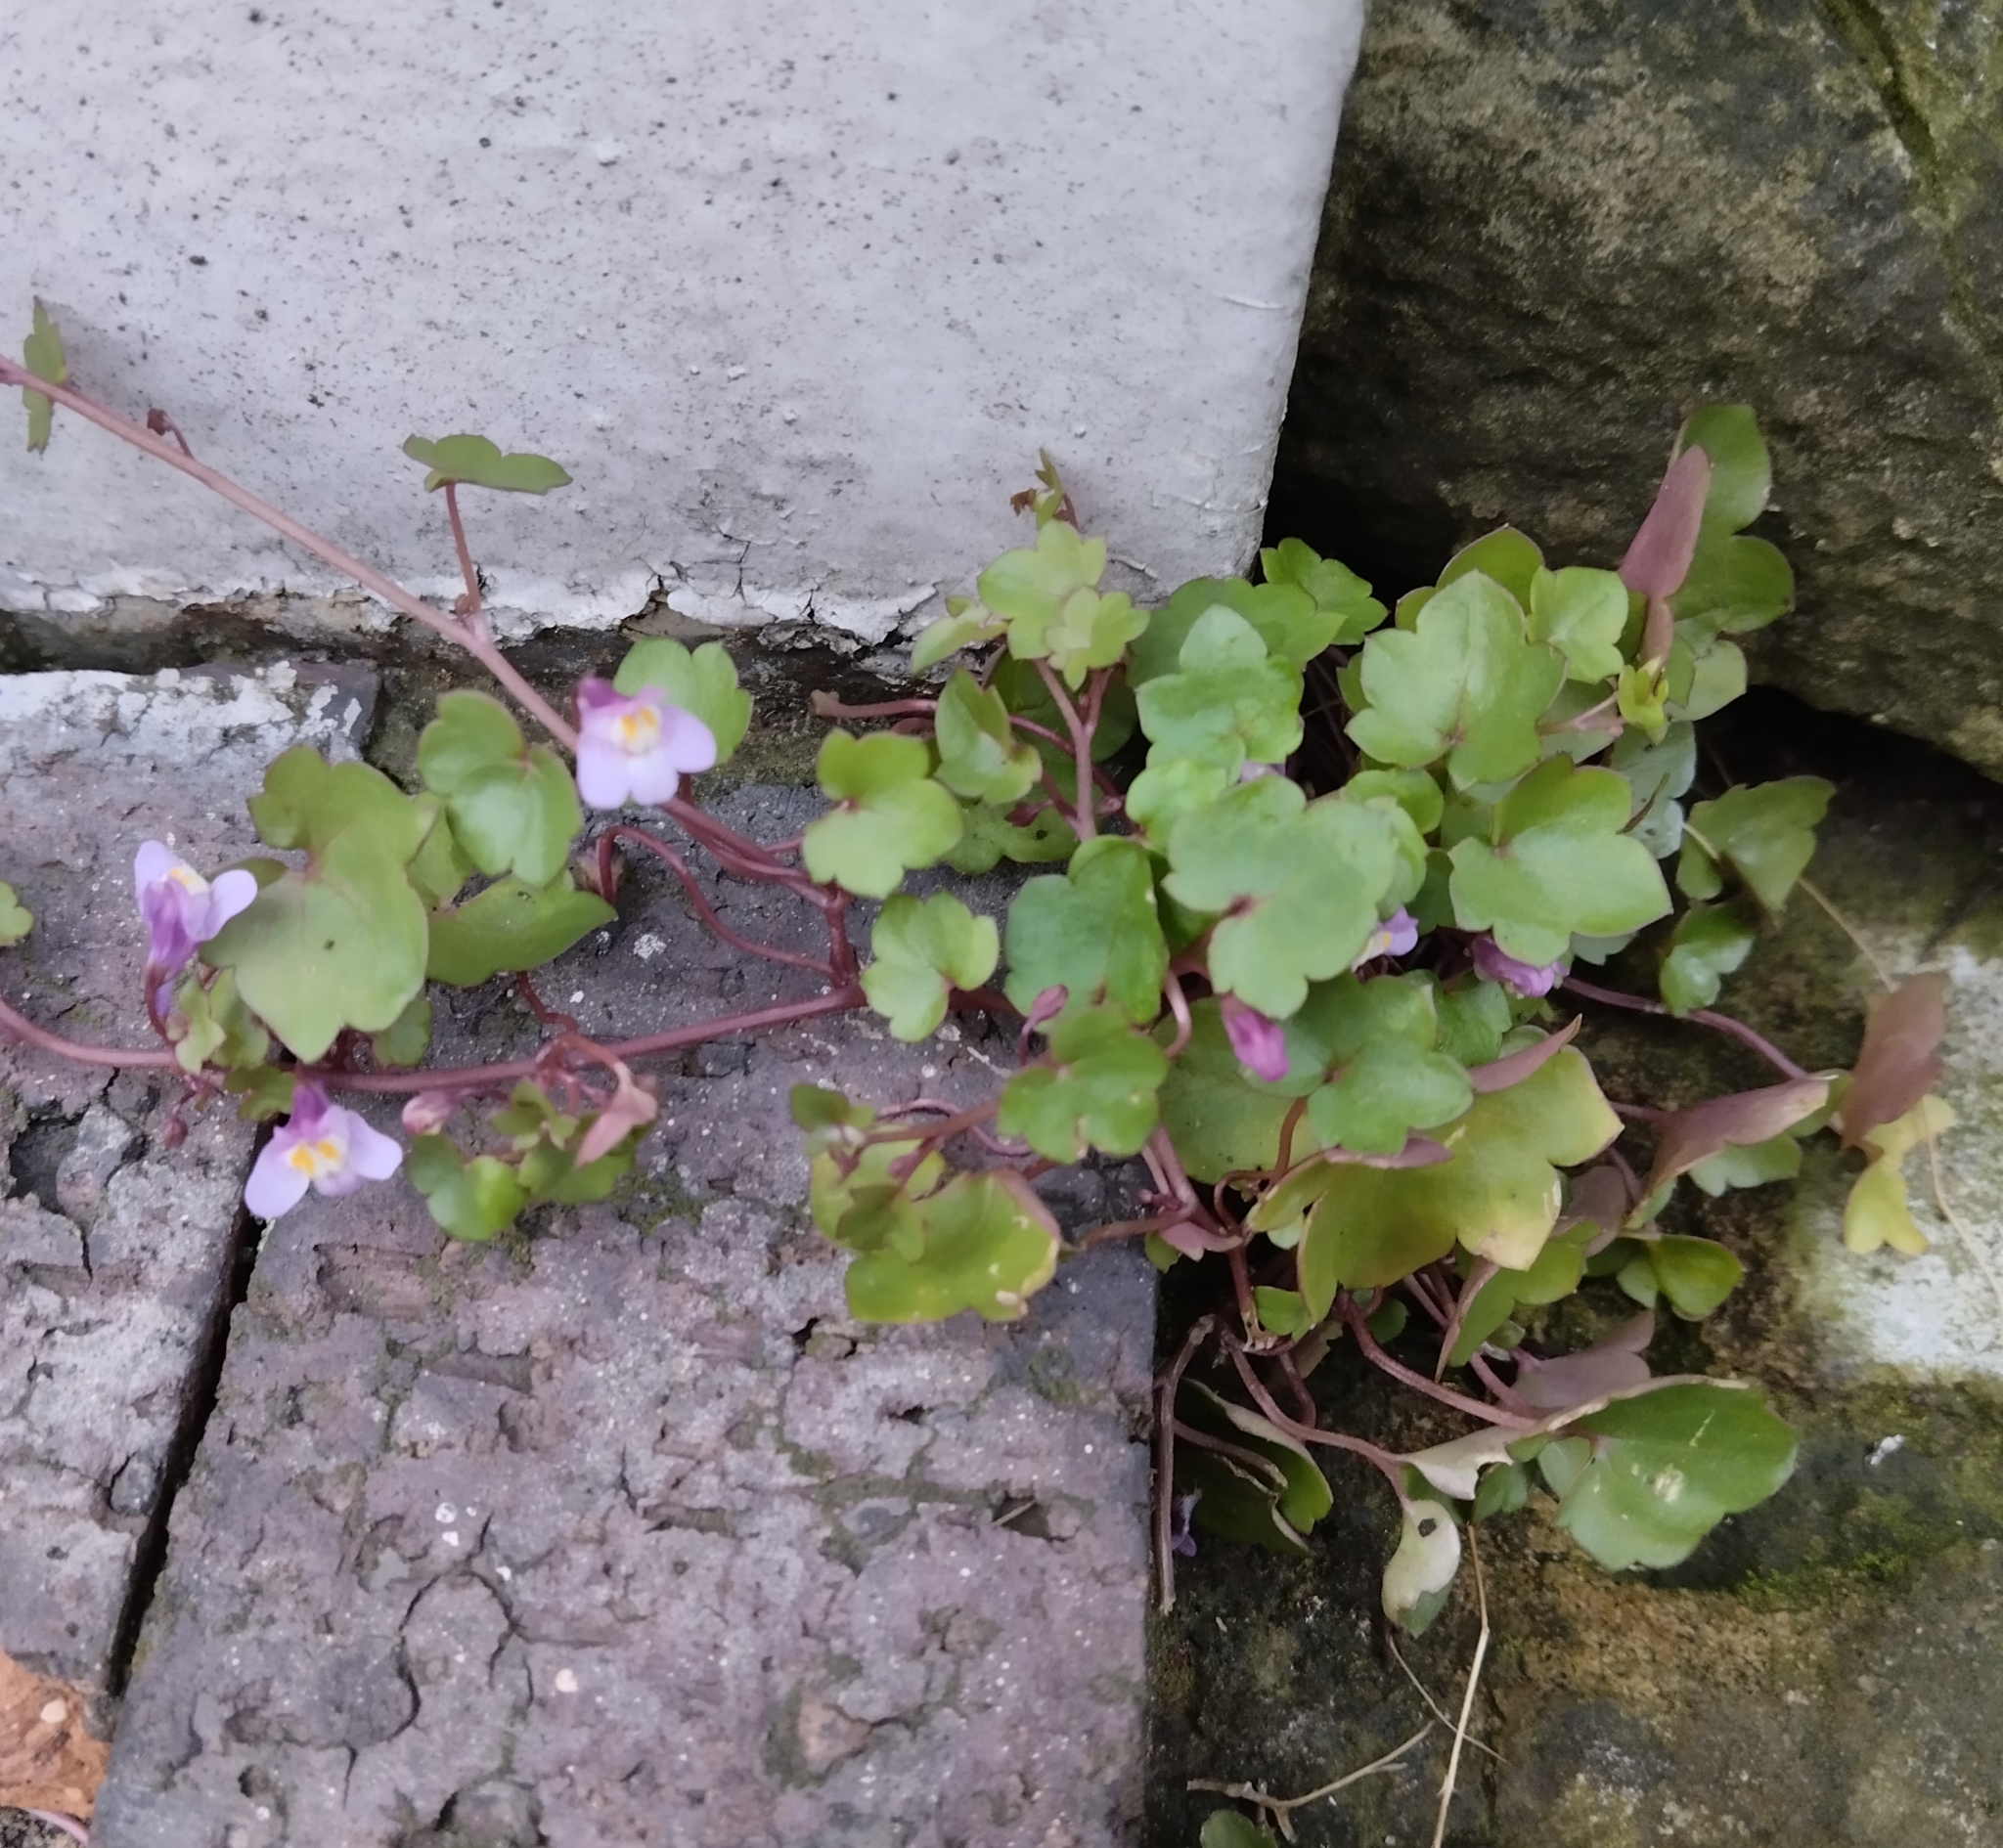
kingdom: Plantae
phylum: Tracheophyta
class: Magnoliopsida
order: Lamiales
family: Plantaginaceae
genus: Cymbalaria
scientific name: Cymbalaria muralis
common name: Ivy-leaved toadflax
